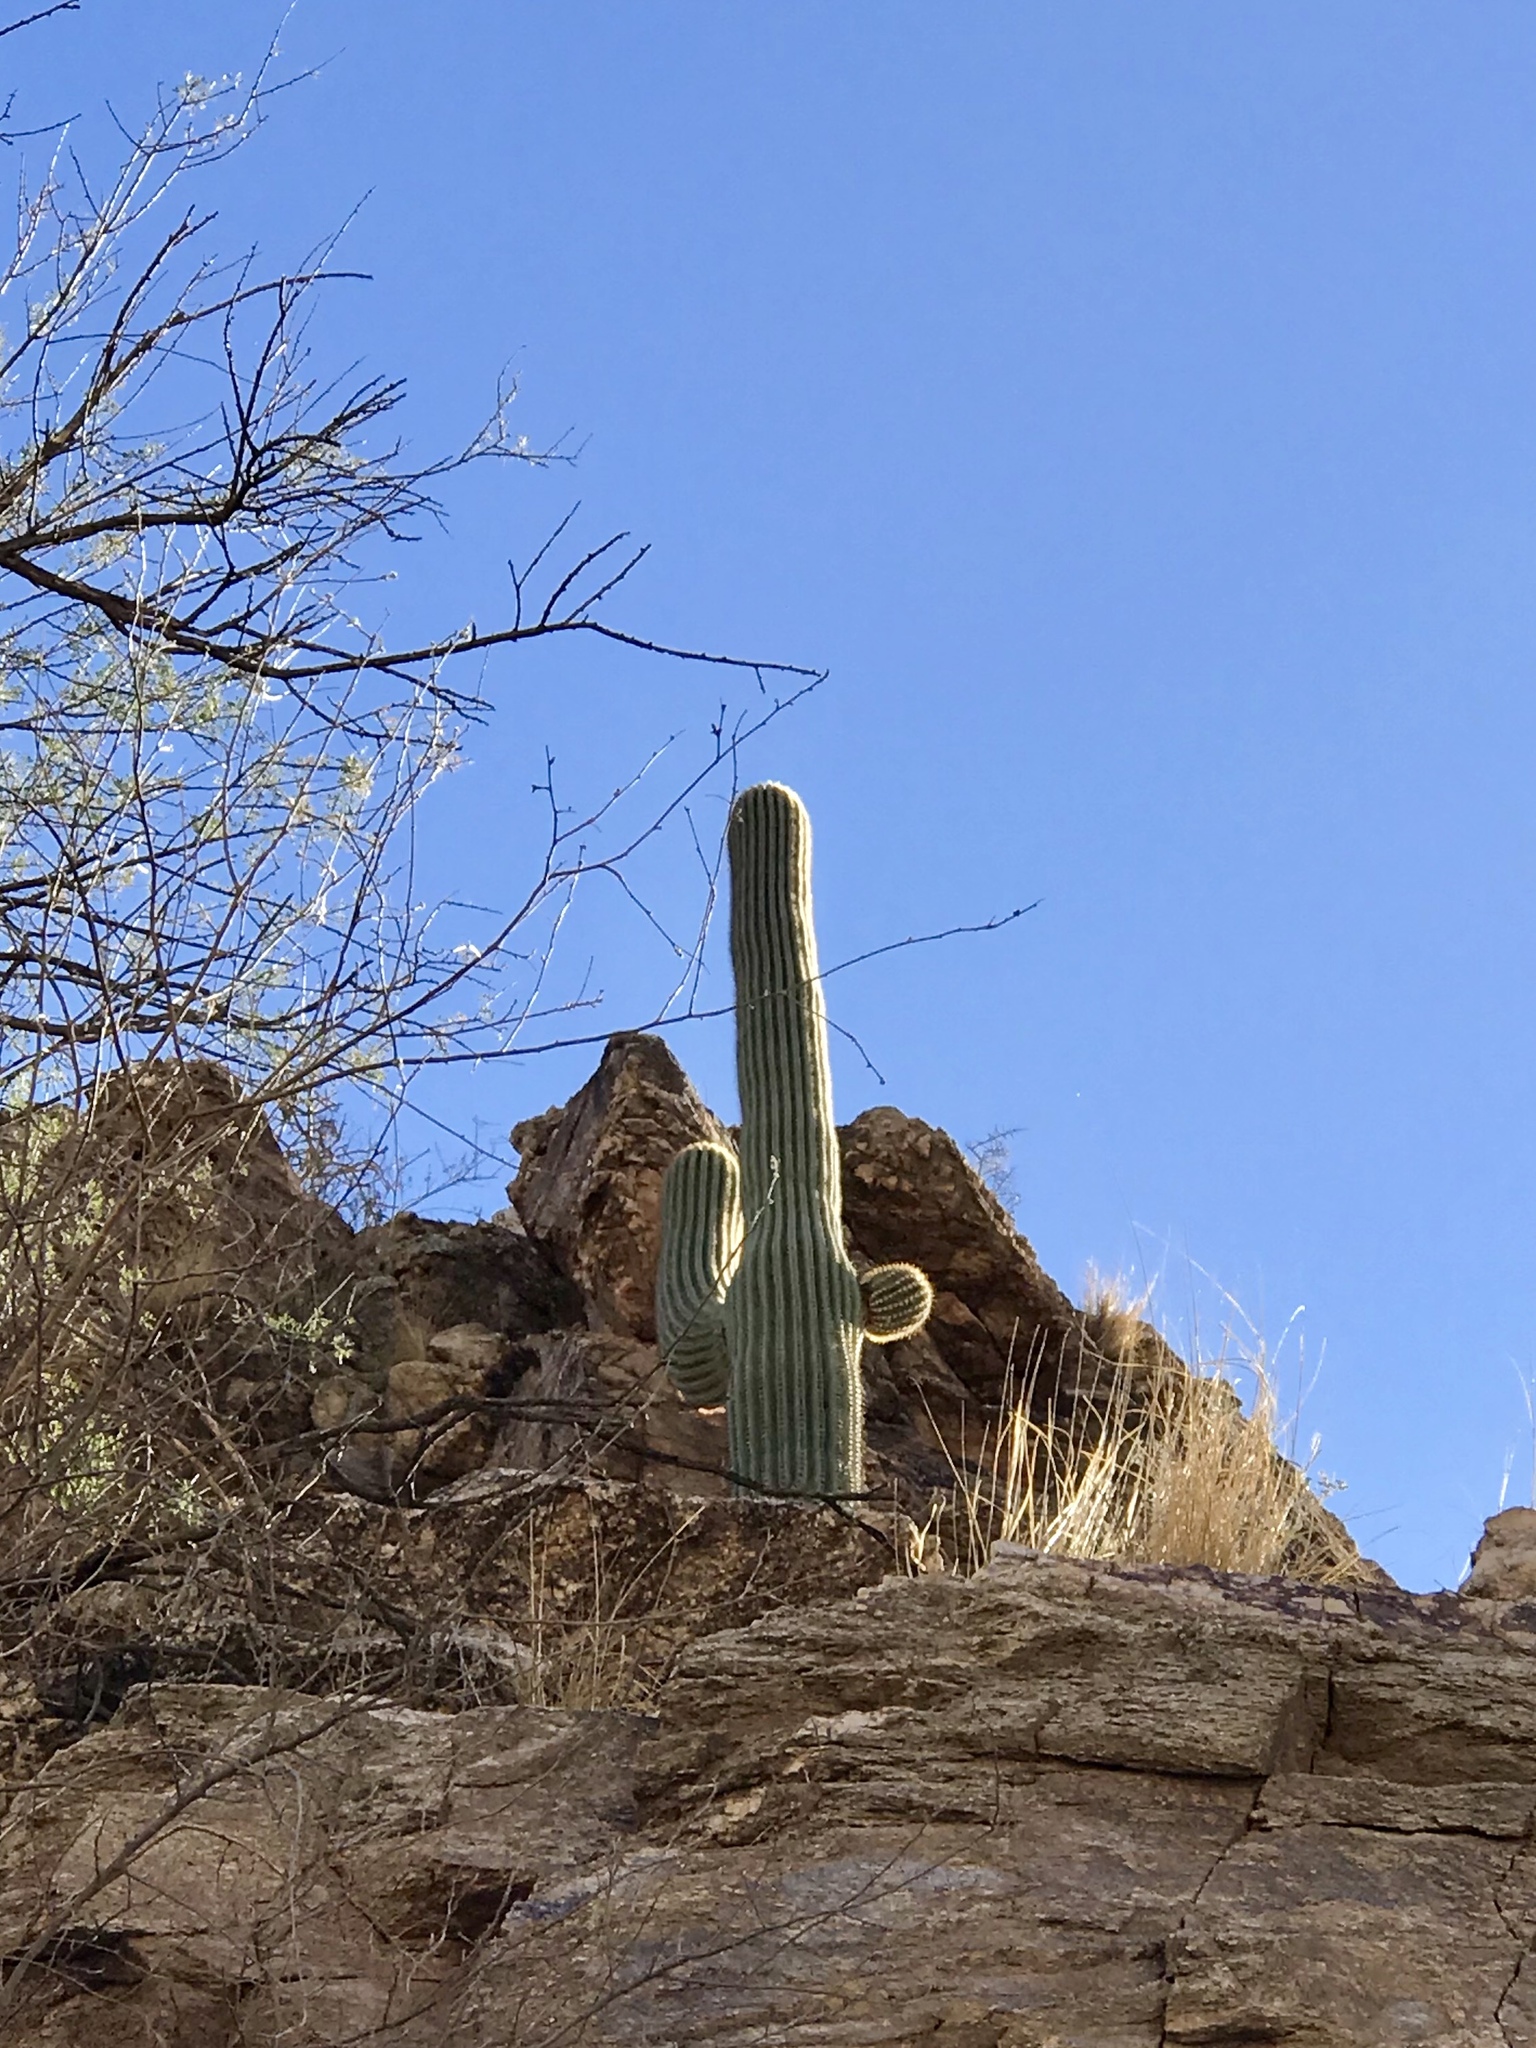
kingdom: Plantae
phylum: Tracheophyta
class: Magnoliopsida
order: Caryophyllales
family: Cactaceae
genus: Carnegiea
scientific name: Carnegiea gigantea
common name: Saguaro
